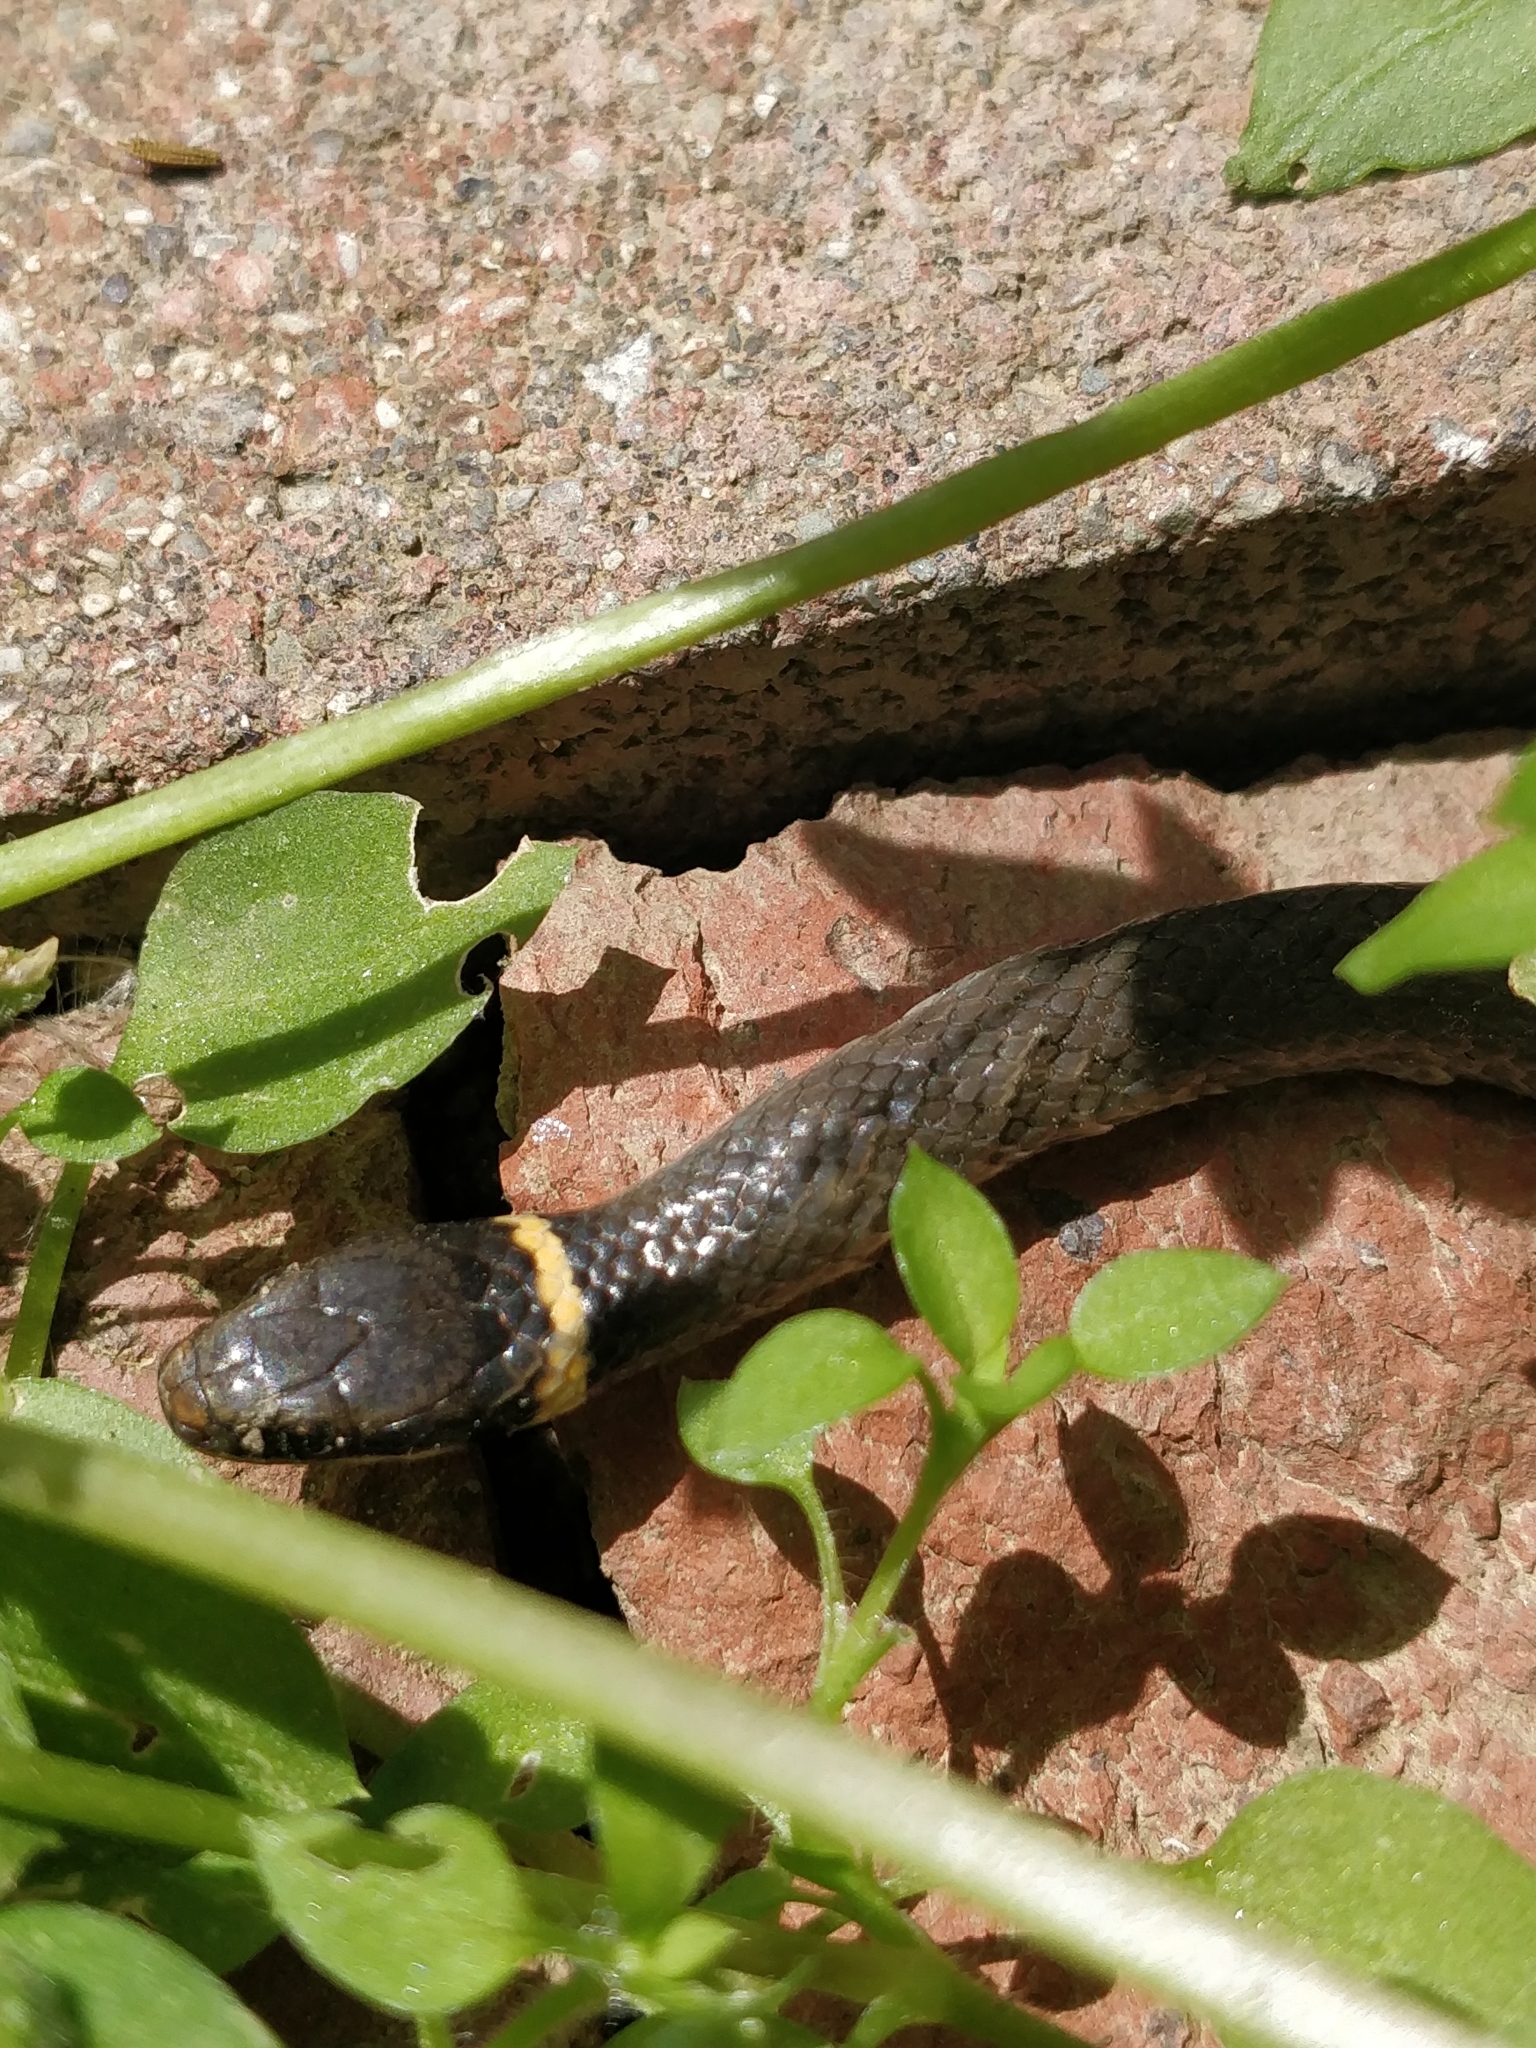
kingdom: Animalia
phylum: Chordata
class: Squamata
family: Colubridae
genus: Diadophis
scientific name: Diadophis punctatus
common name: Ringneck snake
